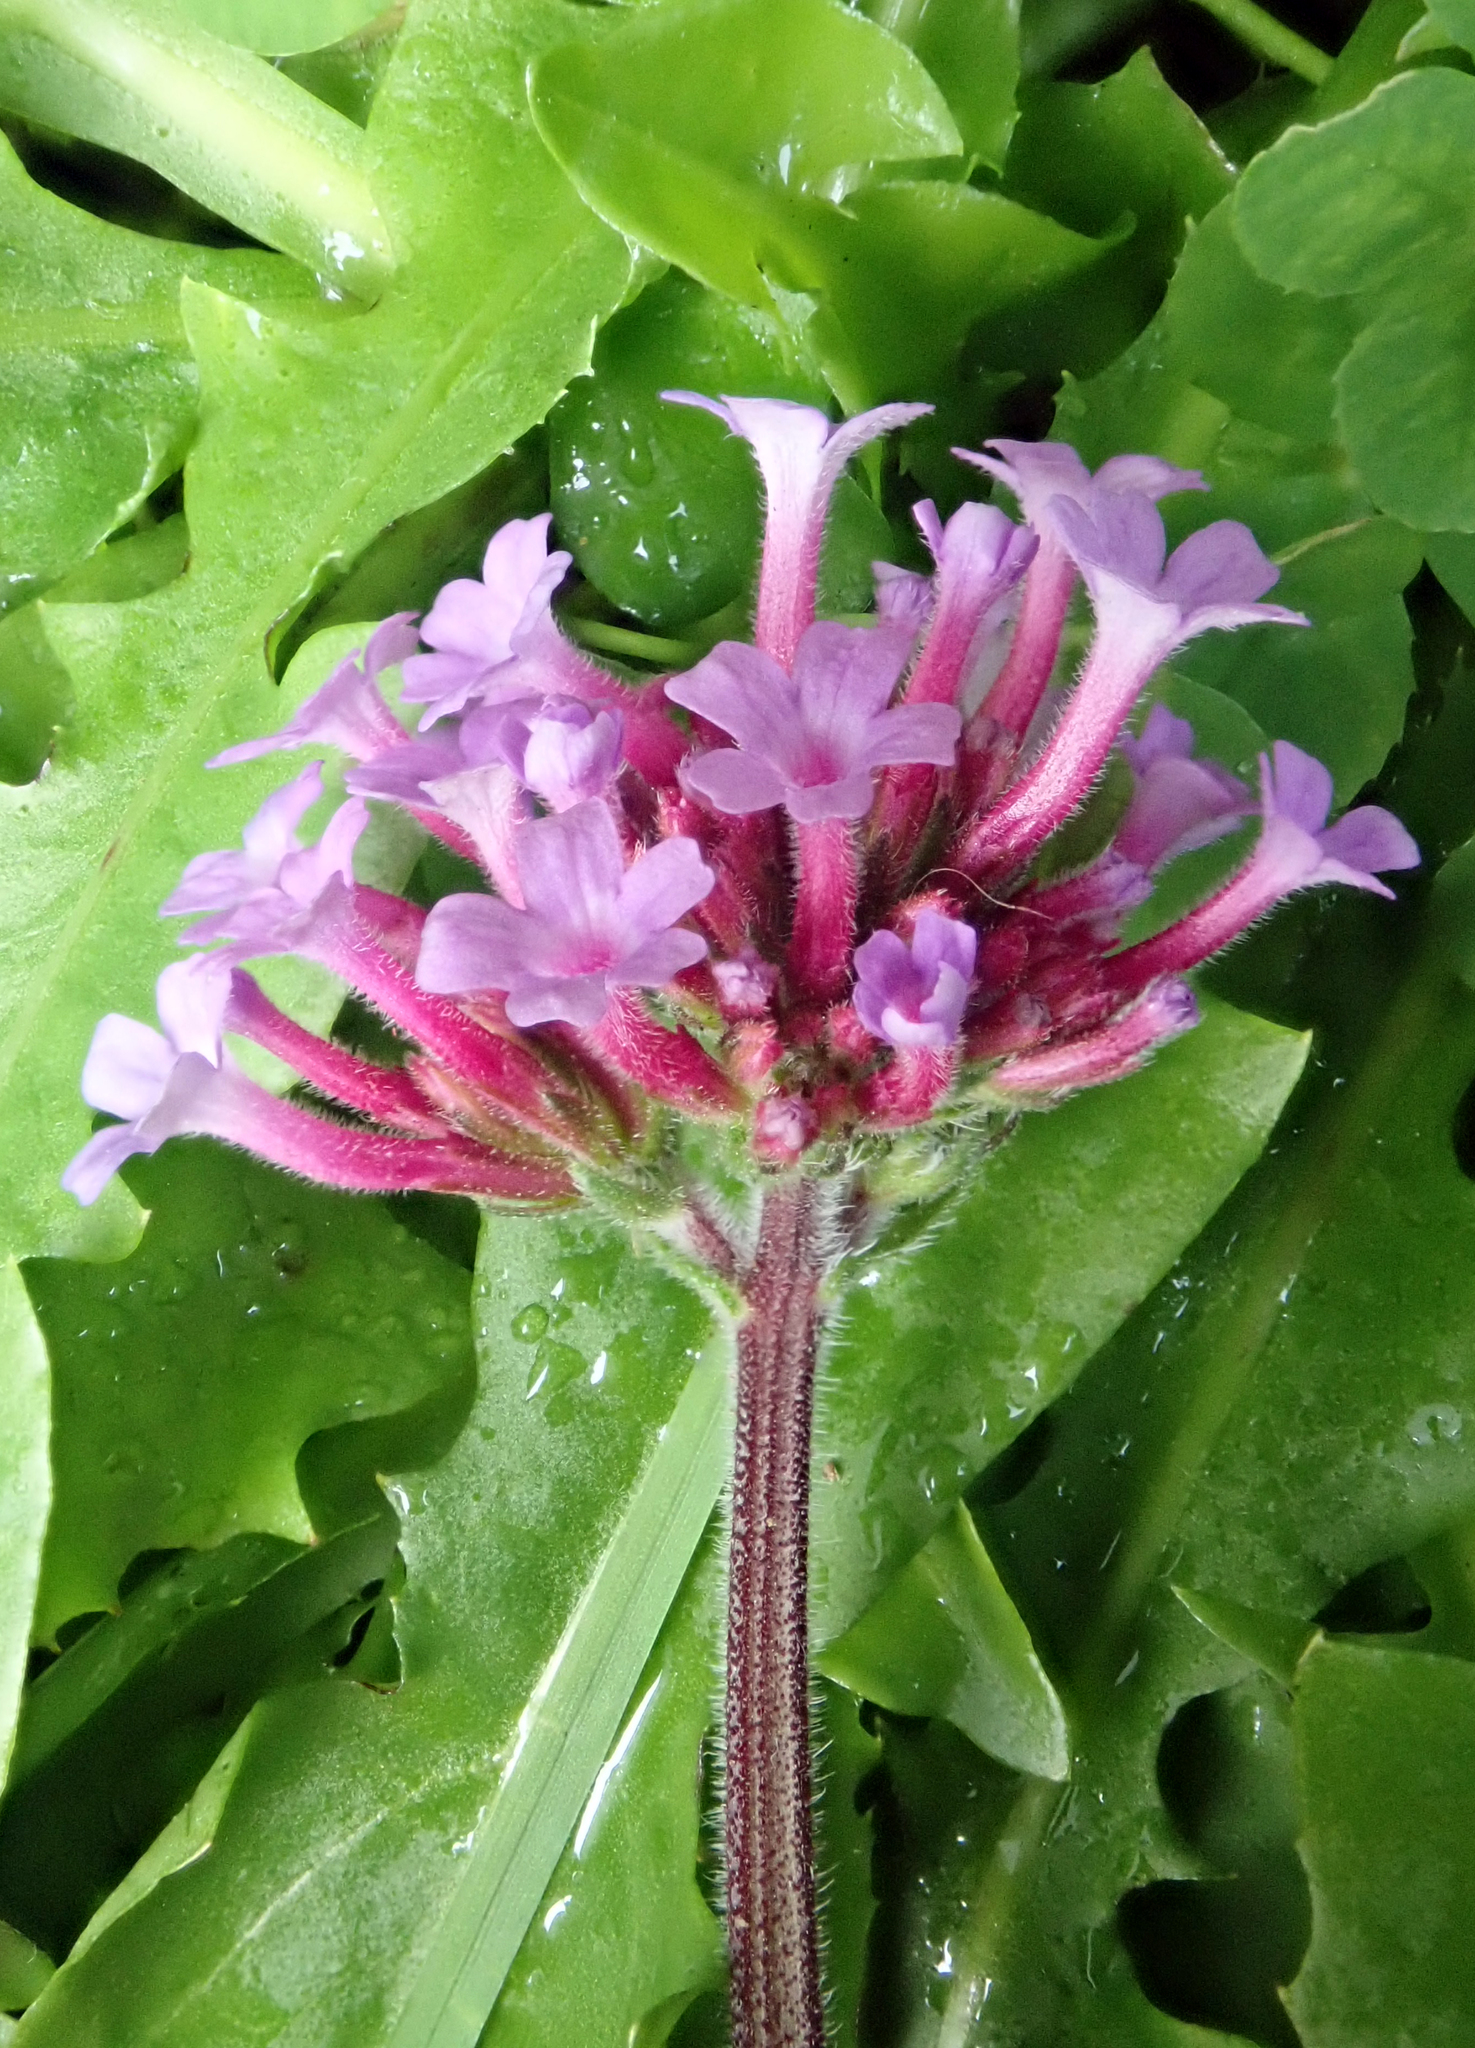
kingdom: Plantae
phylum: Tracheophyta
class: Magnoliopsida
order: Lamiales
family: Verbenaceae
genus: Verbena
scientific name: Verbena bonariensis
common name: Purpletop vervain
